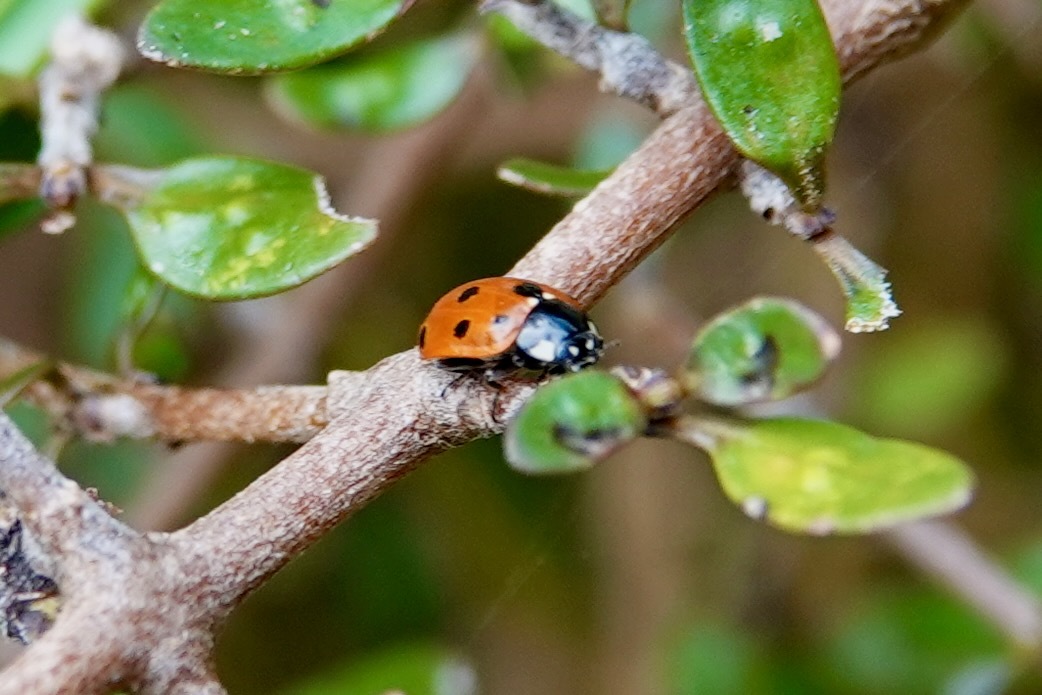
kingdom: Animalia
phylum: Arthropoda
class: Insecta
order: Coleoptera
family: Coccinellidae
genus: Coccinella
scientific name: Coccinella undecimpunctata
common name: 11-spot ladybird
